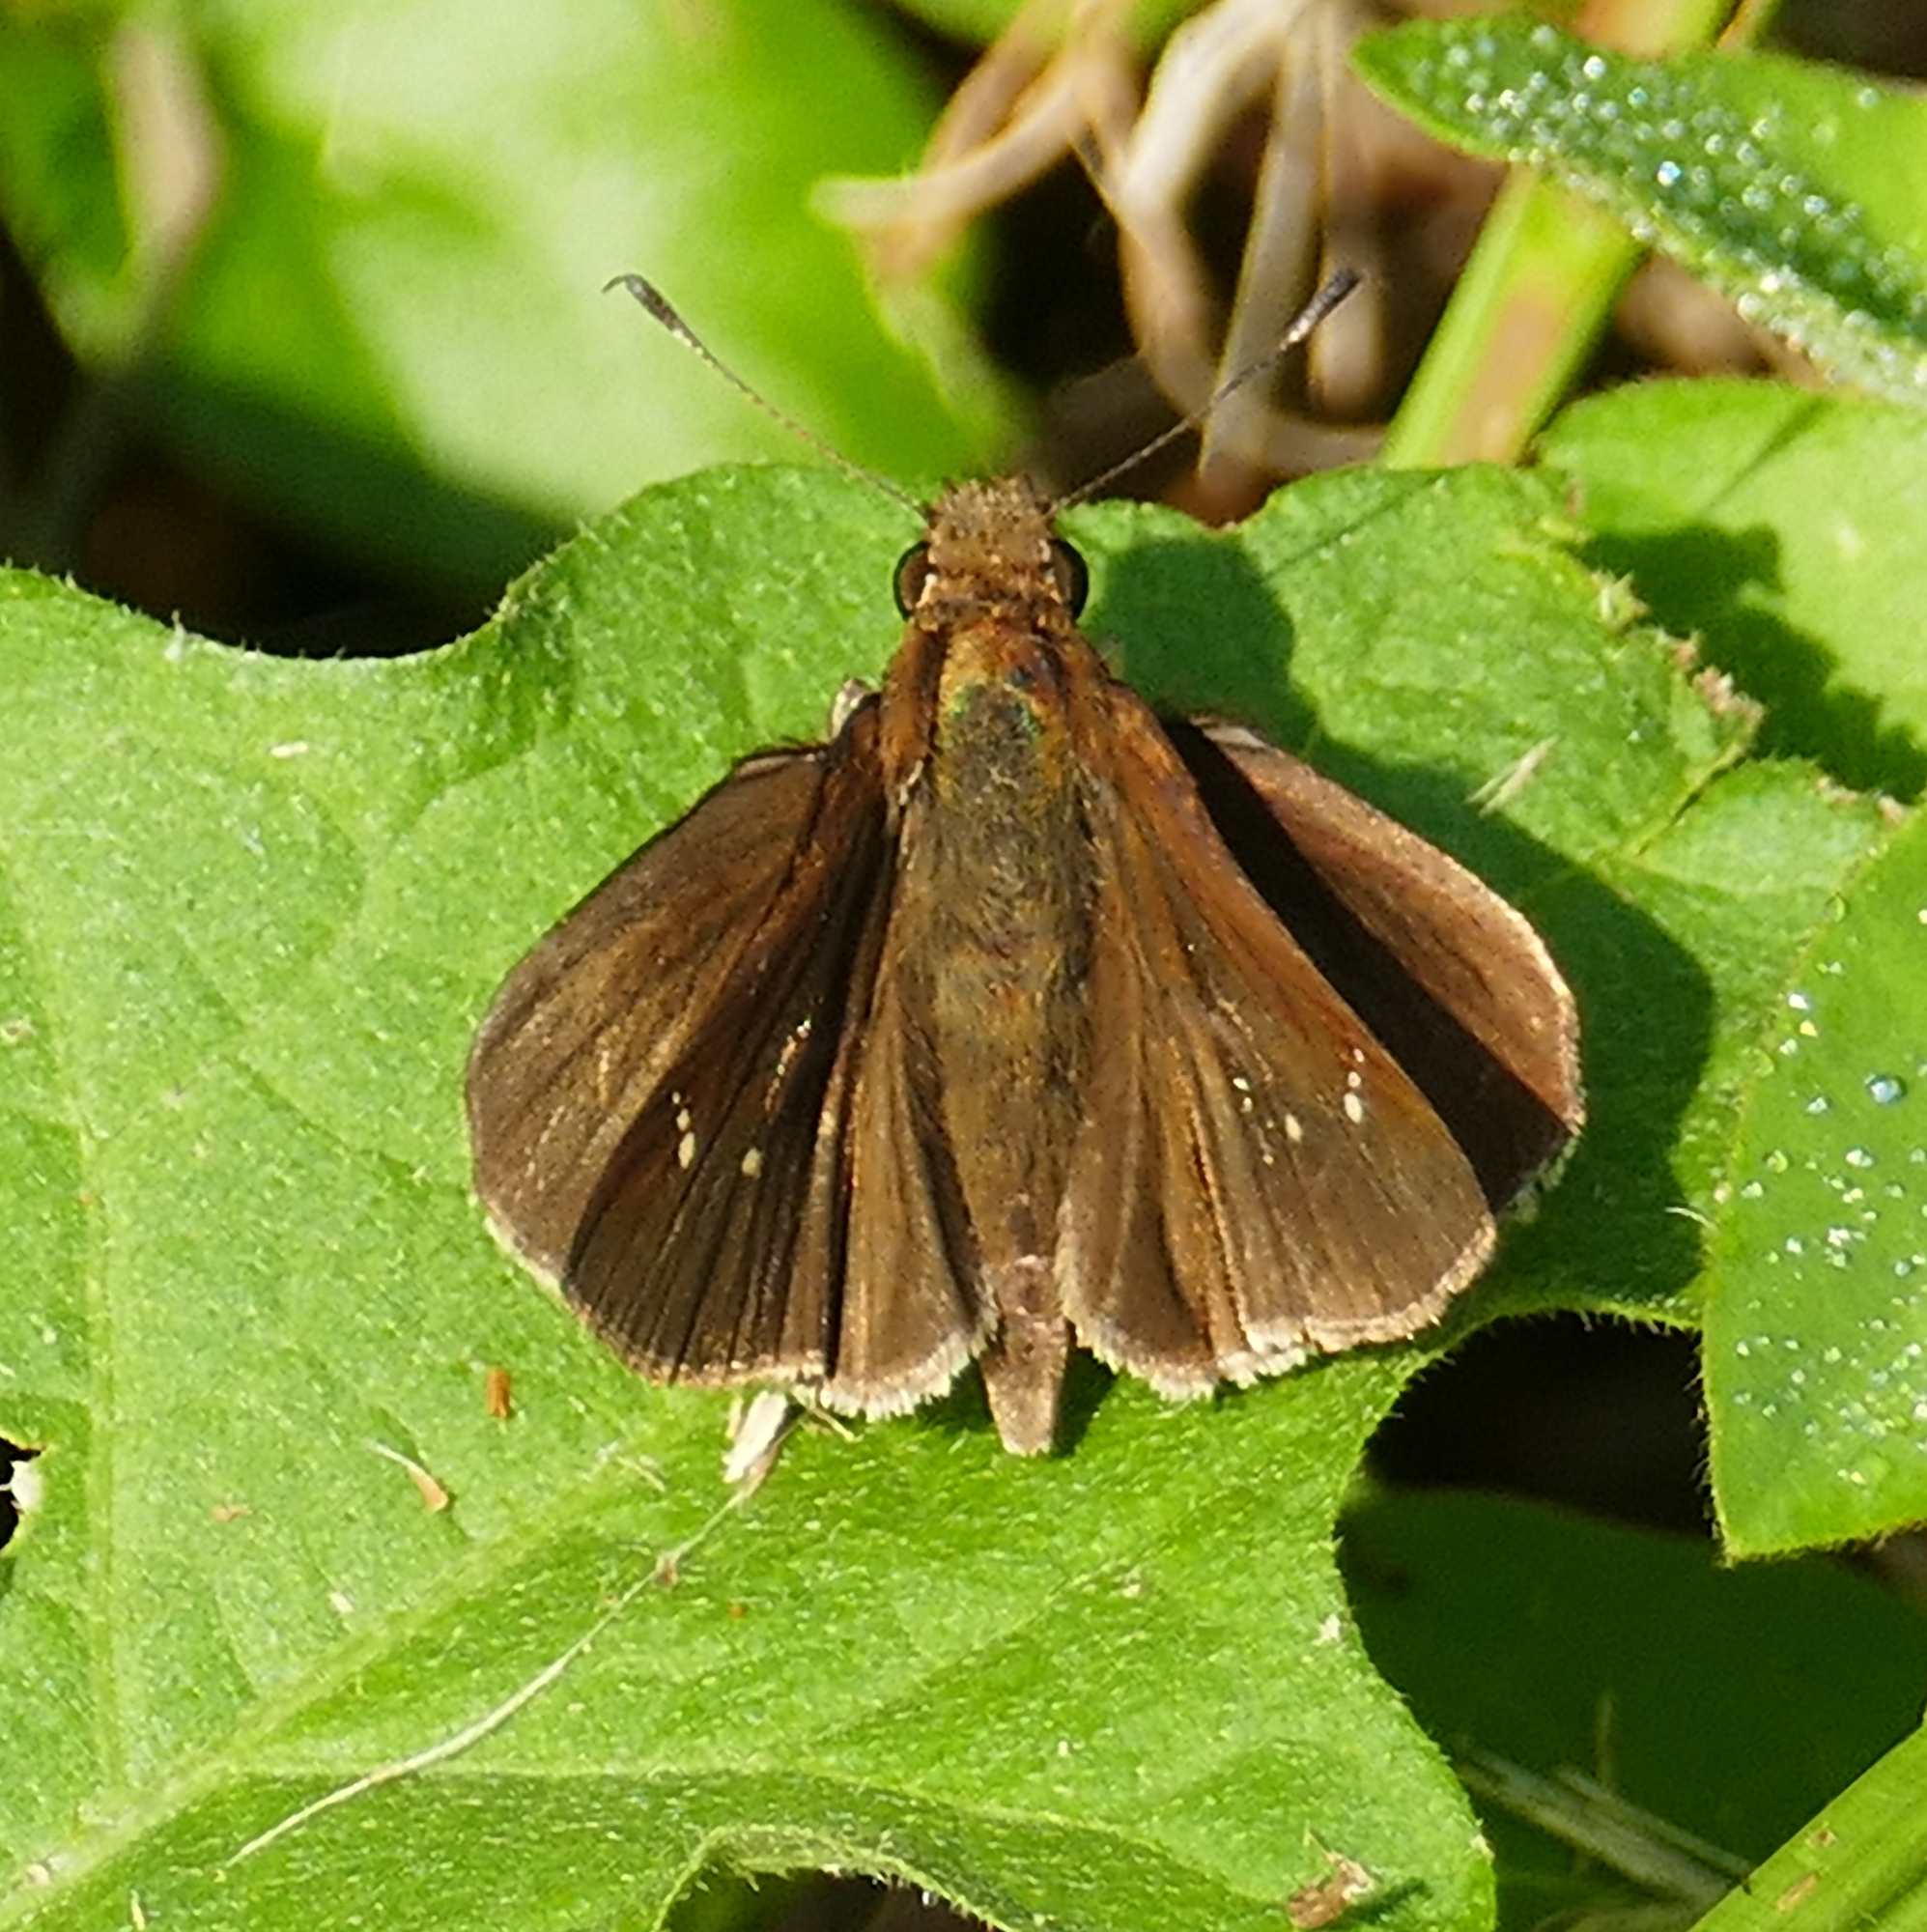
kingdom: Animalia
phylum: Arthropoda
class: Insecta
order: Lepidoptera
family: Hesperiidae
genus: Lerema
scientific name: Lerema accius
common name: Clouded skipper
